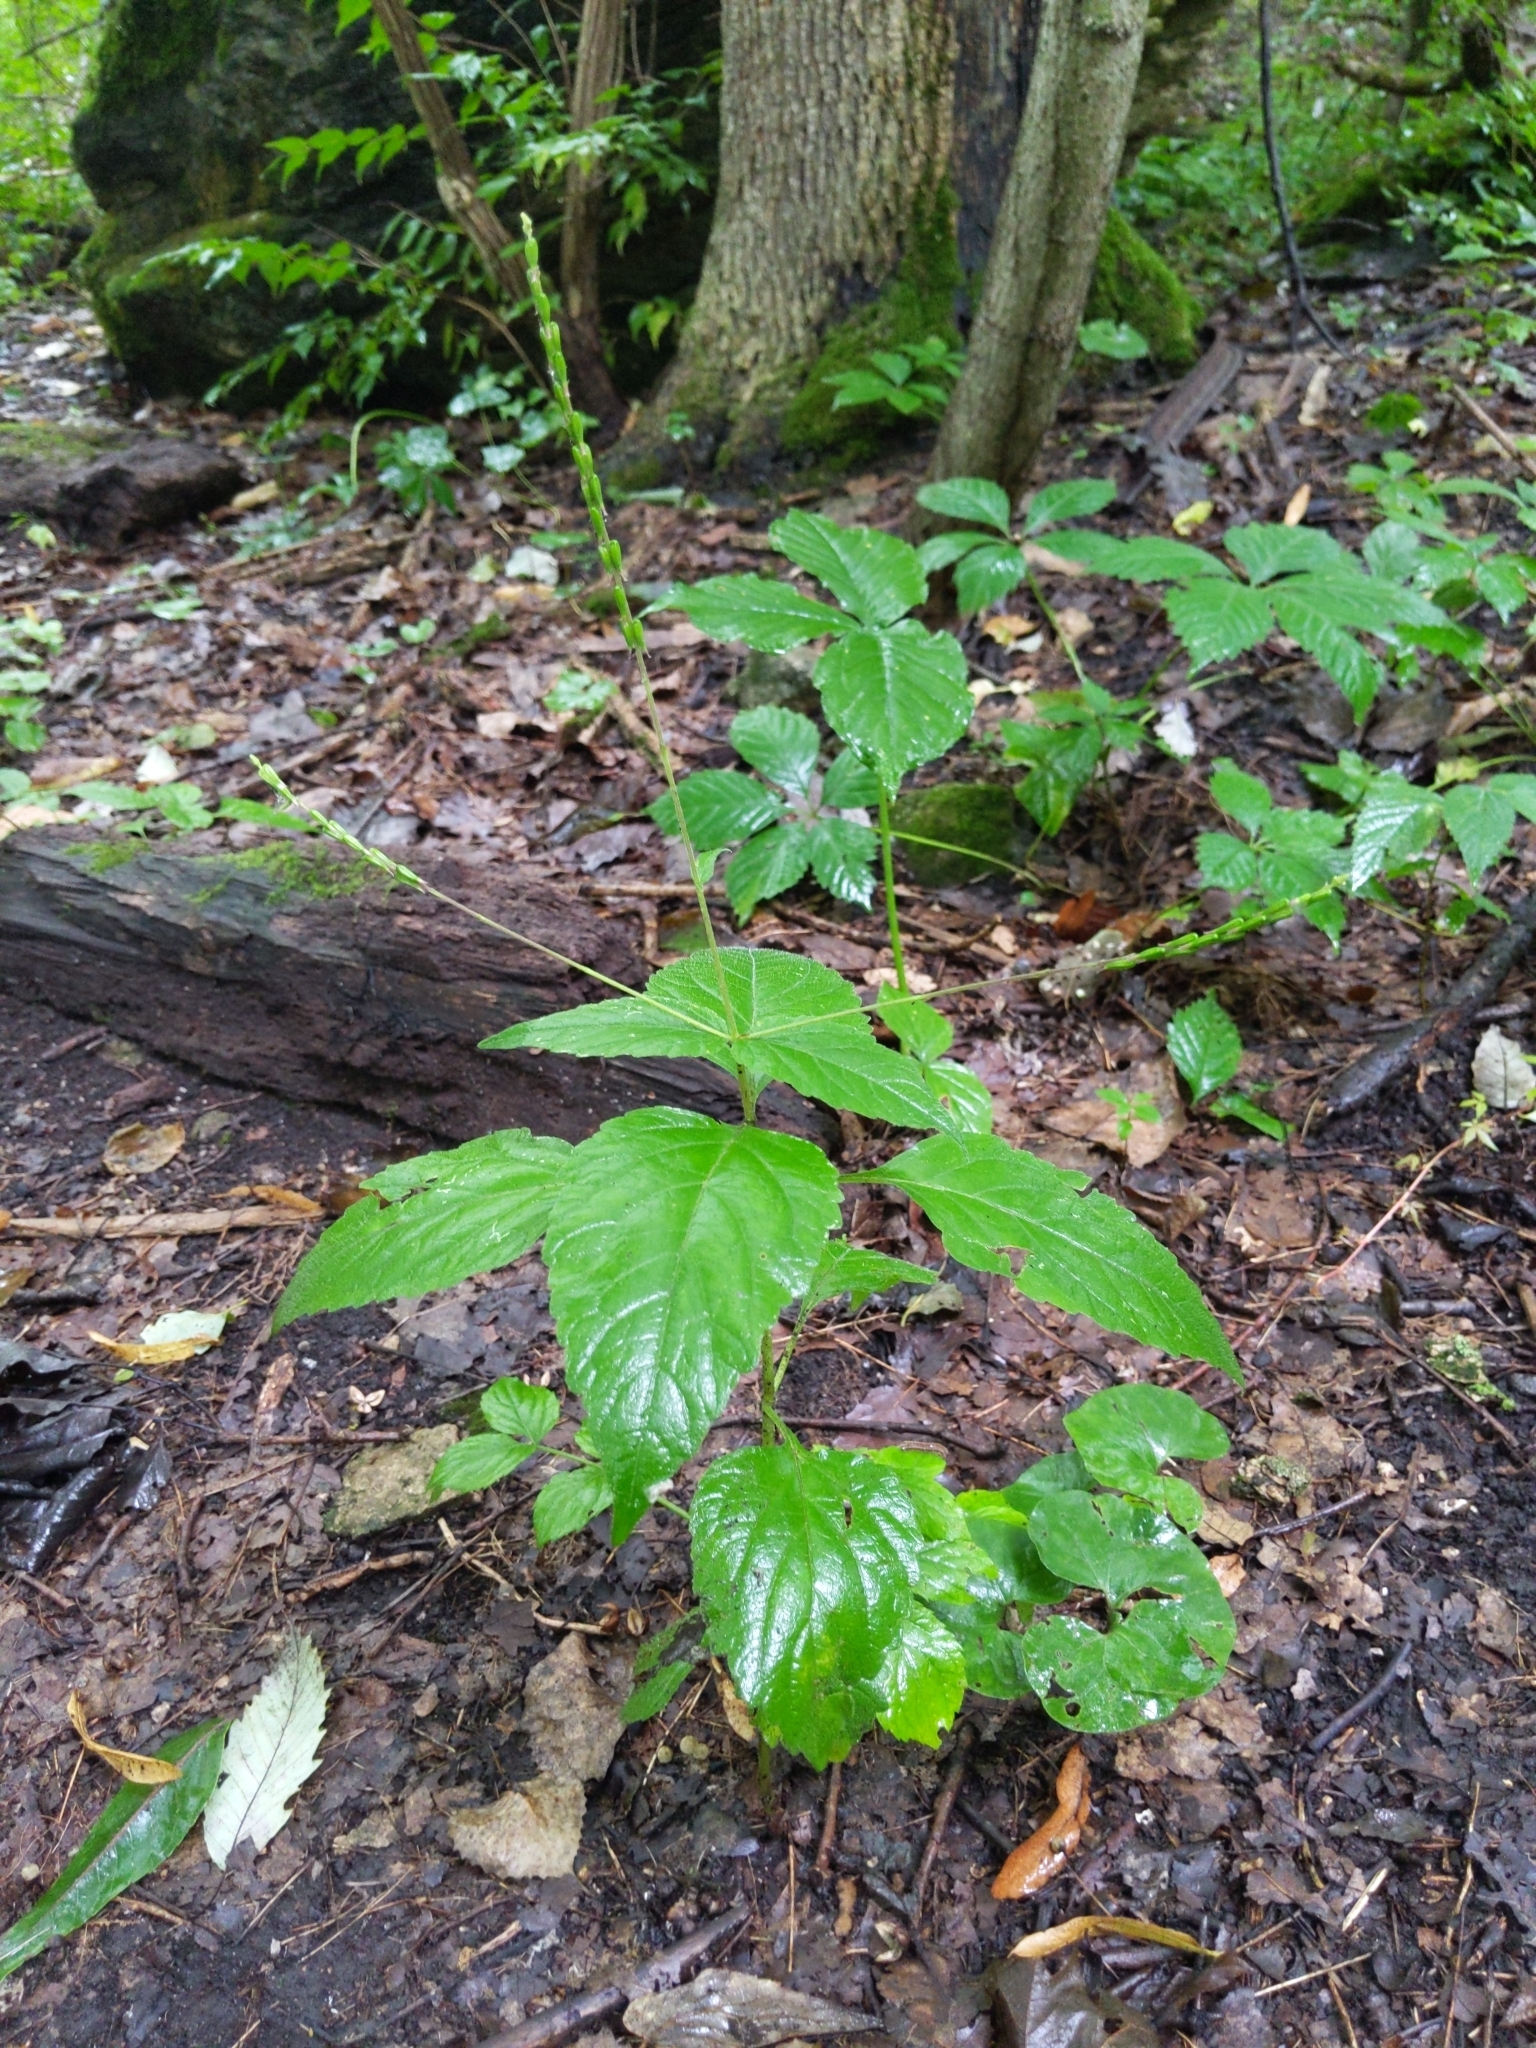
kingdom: Plantae
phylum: Tracheophyta
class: Magnoliopsida
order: Lamiales
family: Phrymaceae
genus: Phryma
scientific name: Phryma leptostachya
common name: American lopseed
